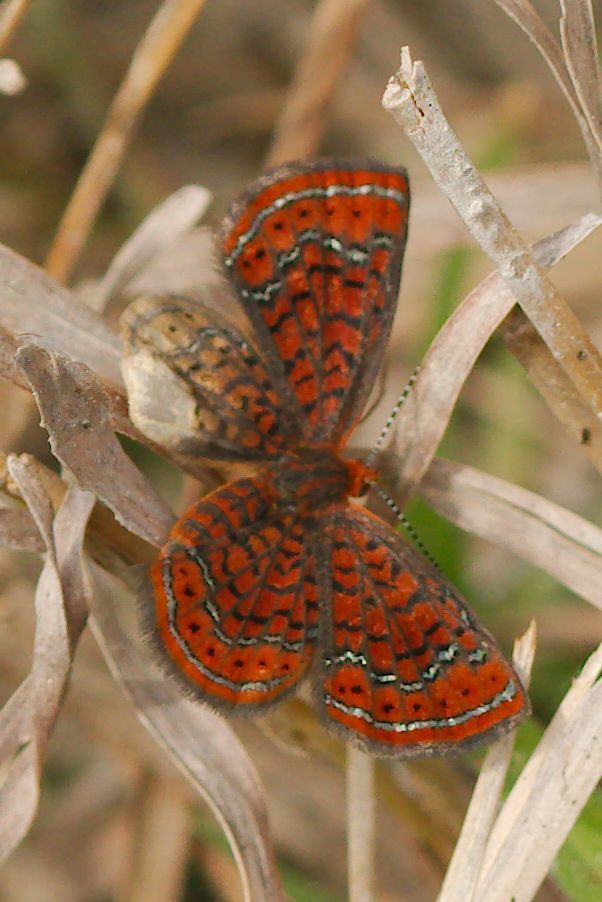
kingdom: Animalia
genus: Calephelis
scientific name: Calephelis virginiensis
